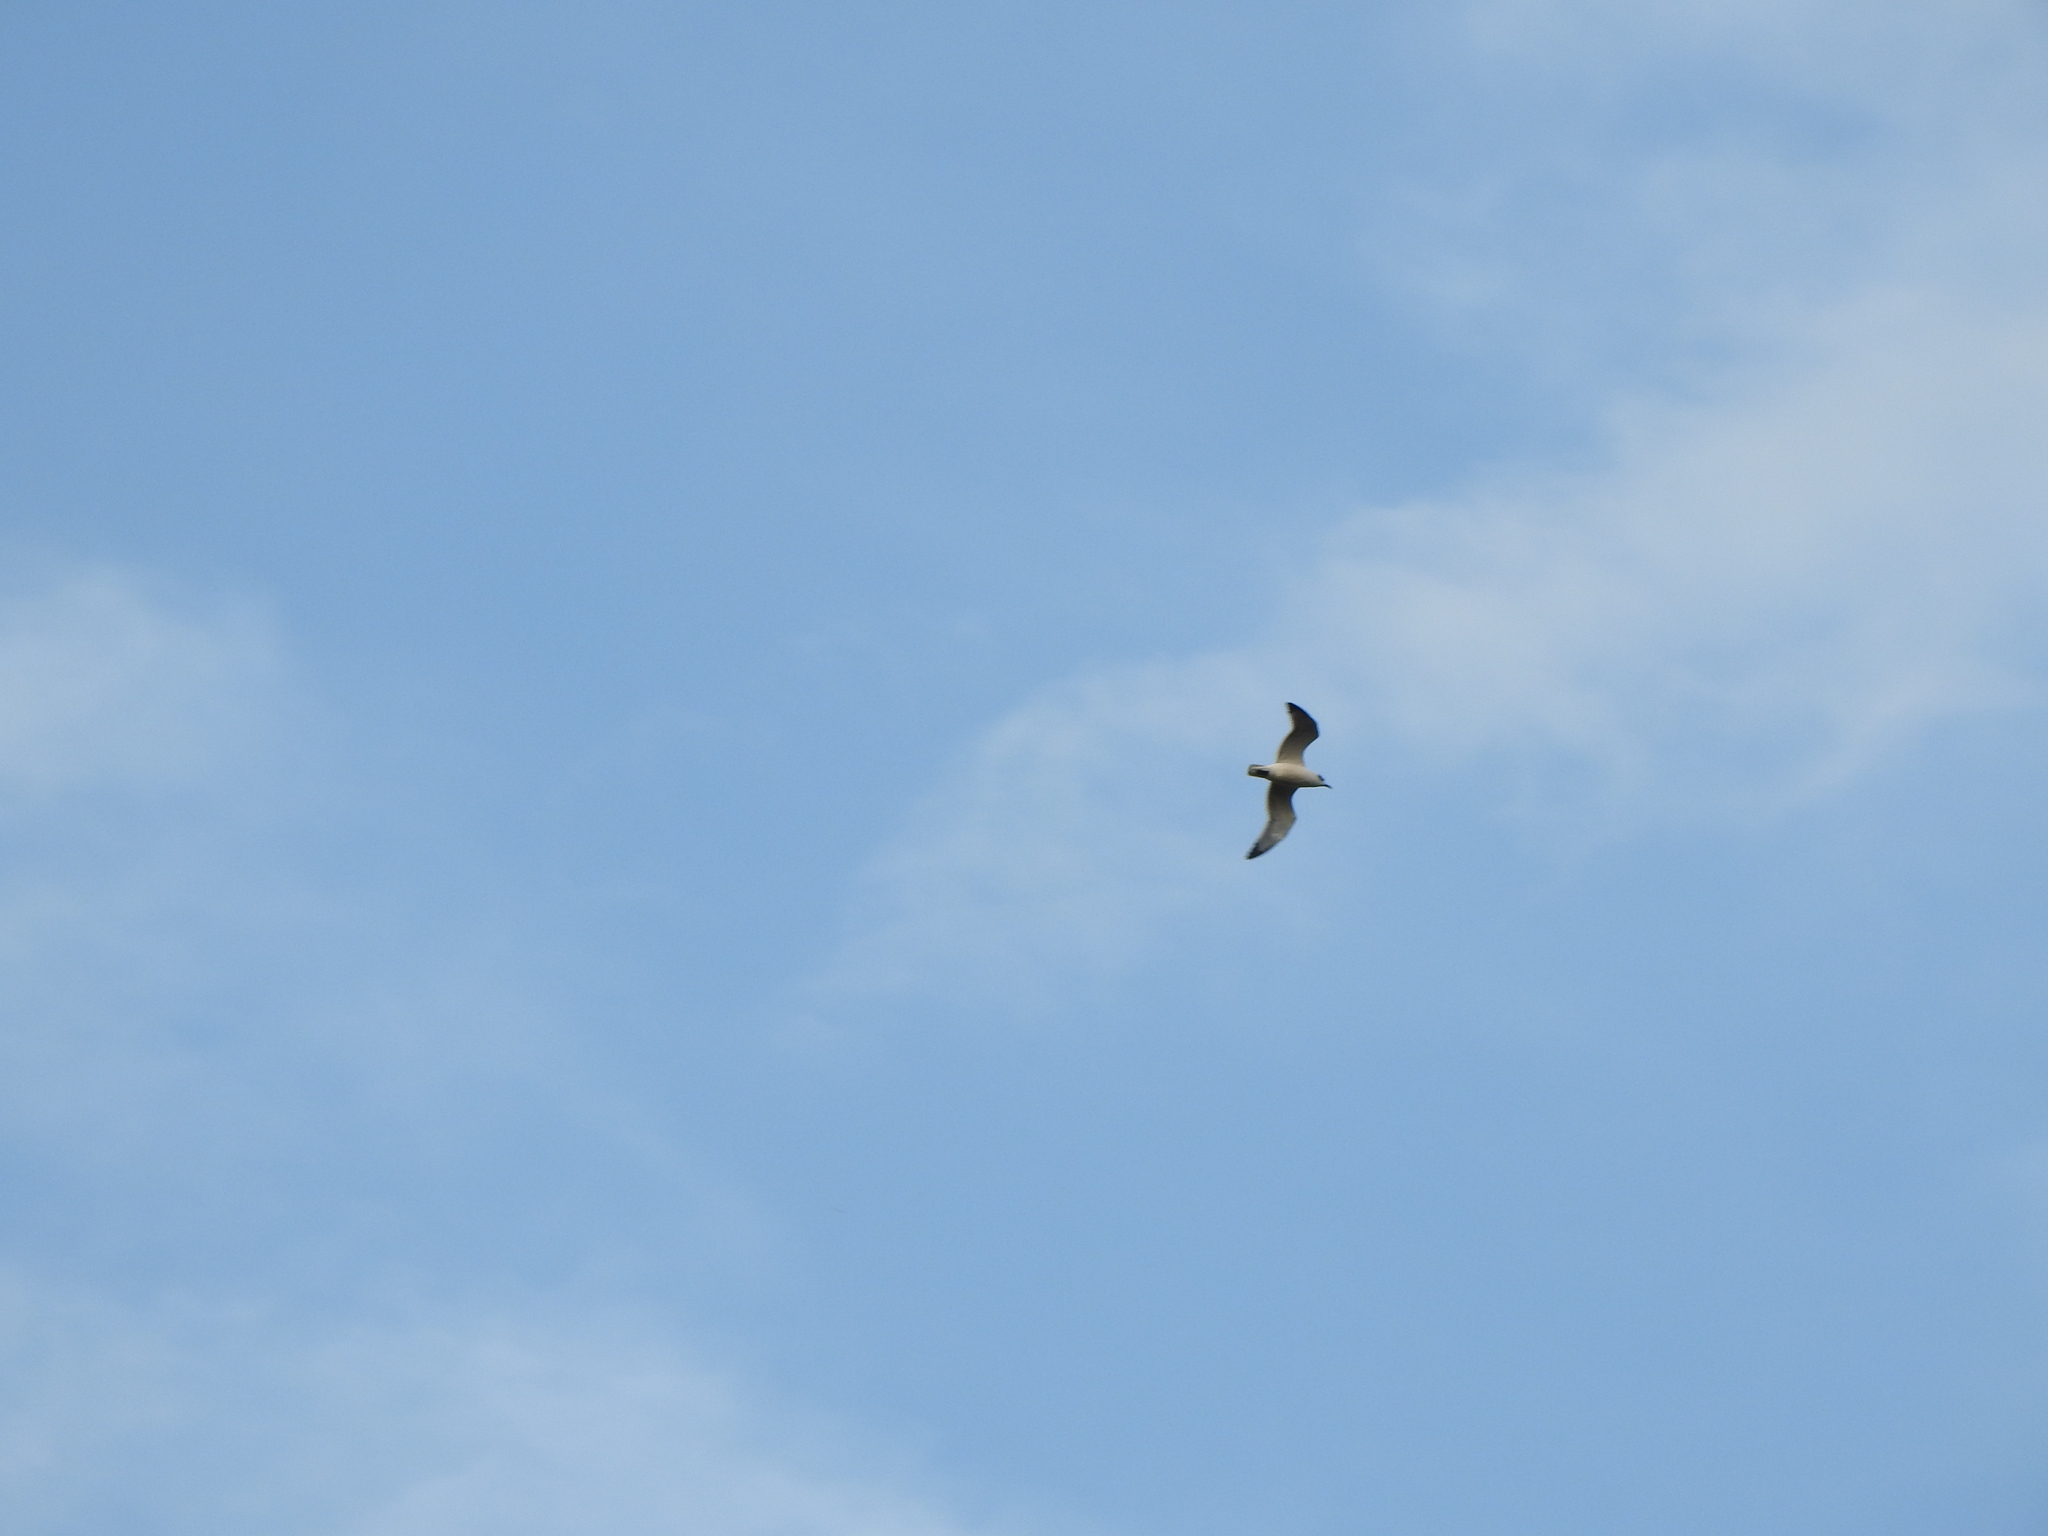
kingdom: Animalia
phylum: Chordata
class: Aves
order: Charadriiformes
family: Laridae
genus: Leucophaeus
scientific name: Leucophaeus pipixcan
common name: Franklin's gull
